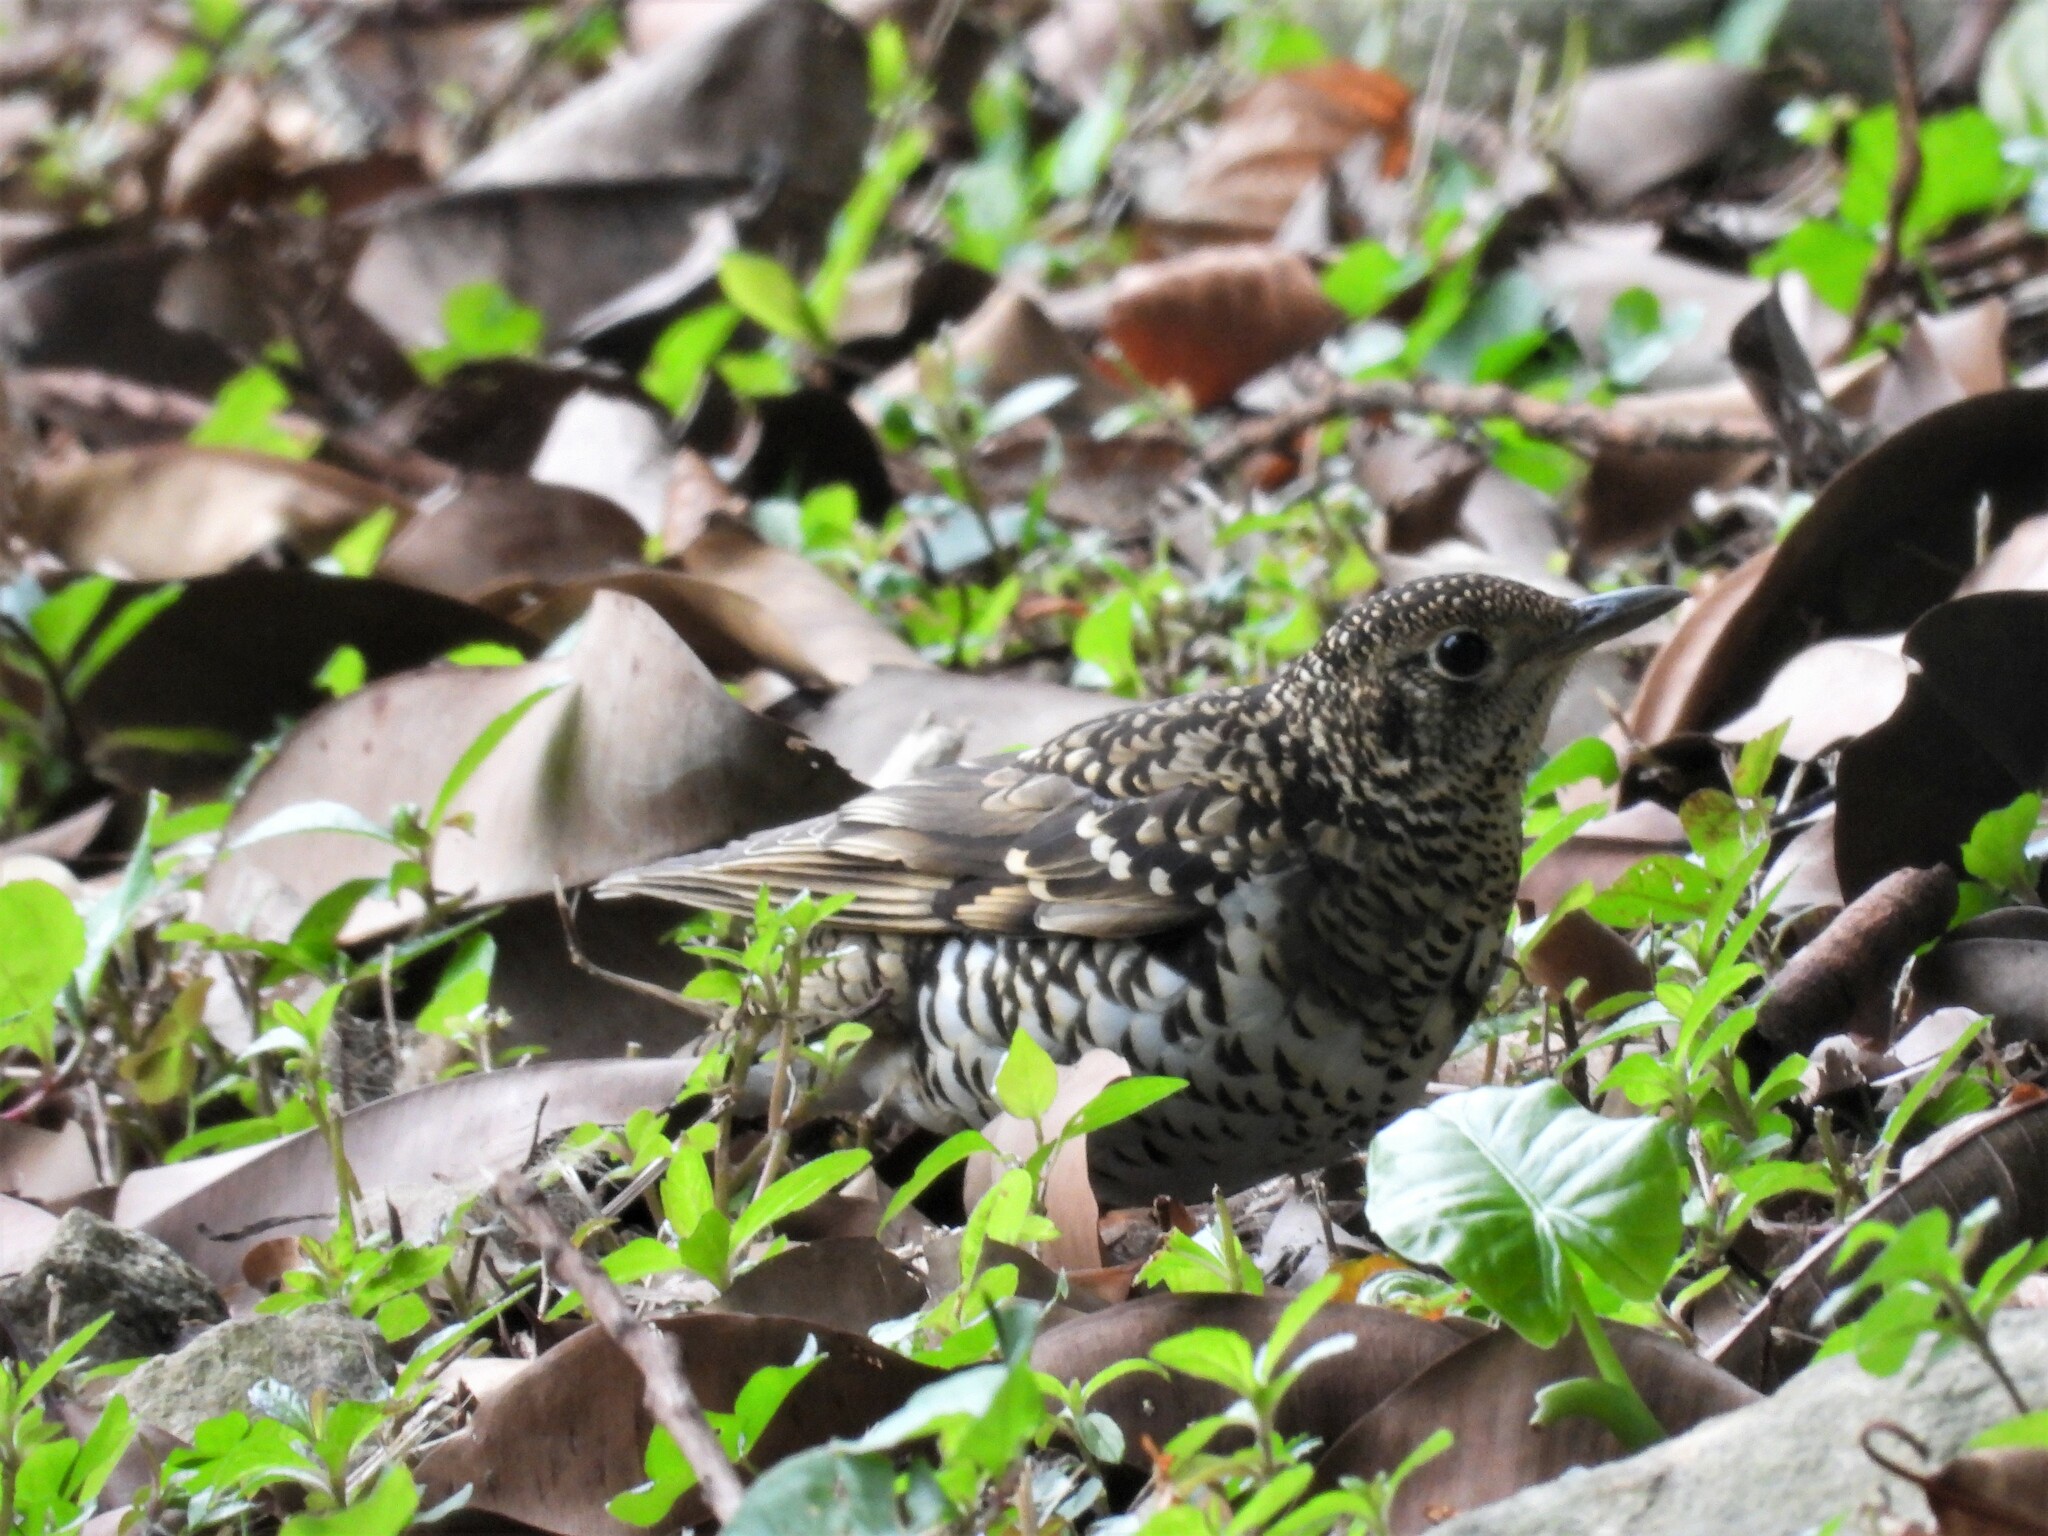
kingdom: Animalia
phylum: Chordata
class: Aves
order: Passeriformes
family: Turdidae
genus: Zoothera
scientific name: Zoothera aurea
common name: White's thrush
